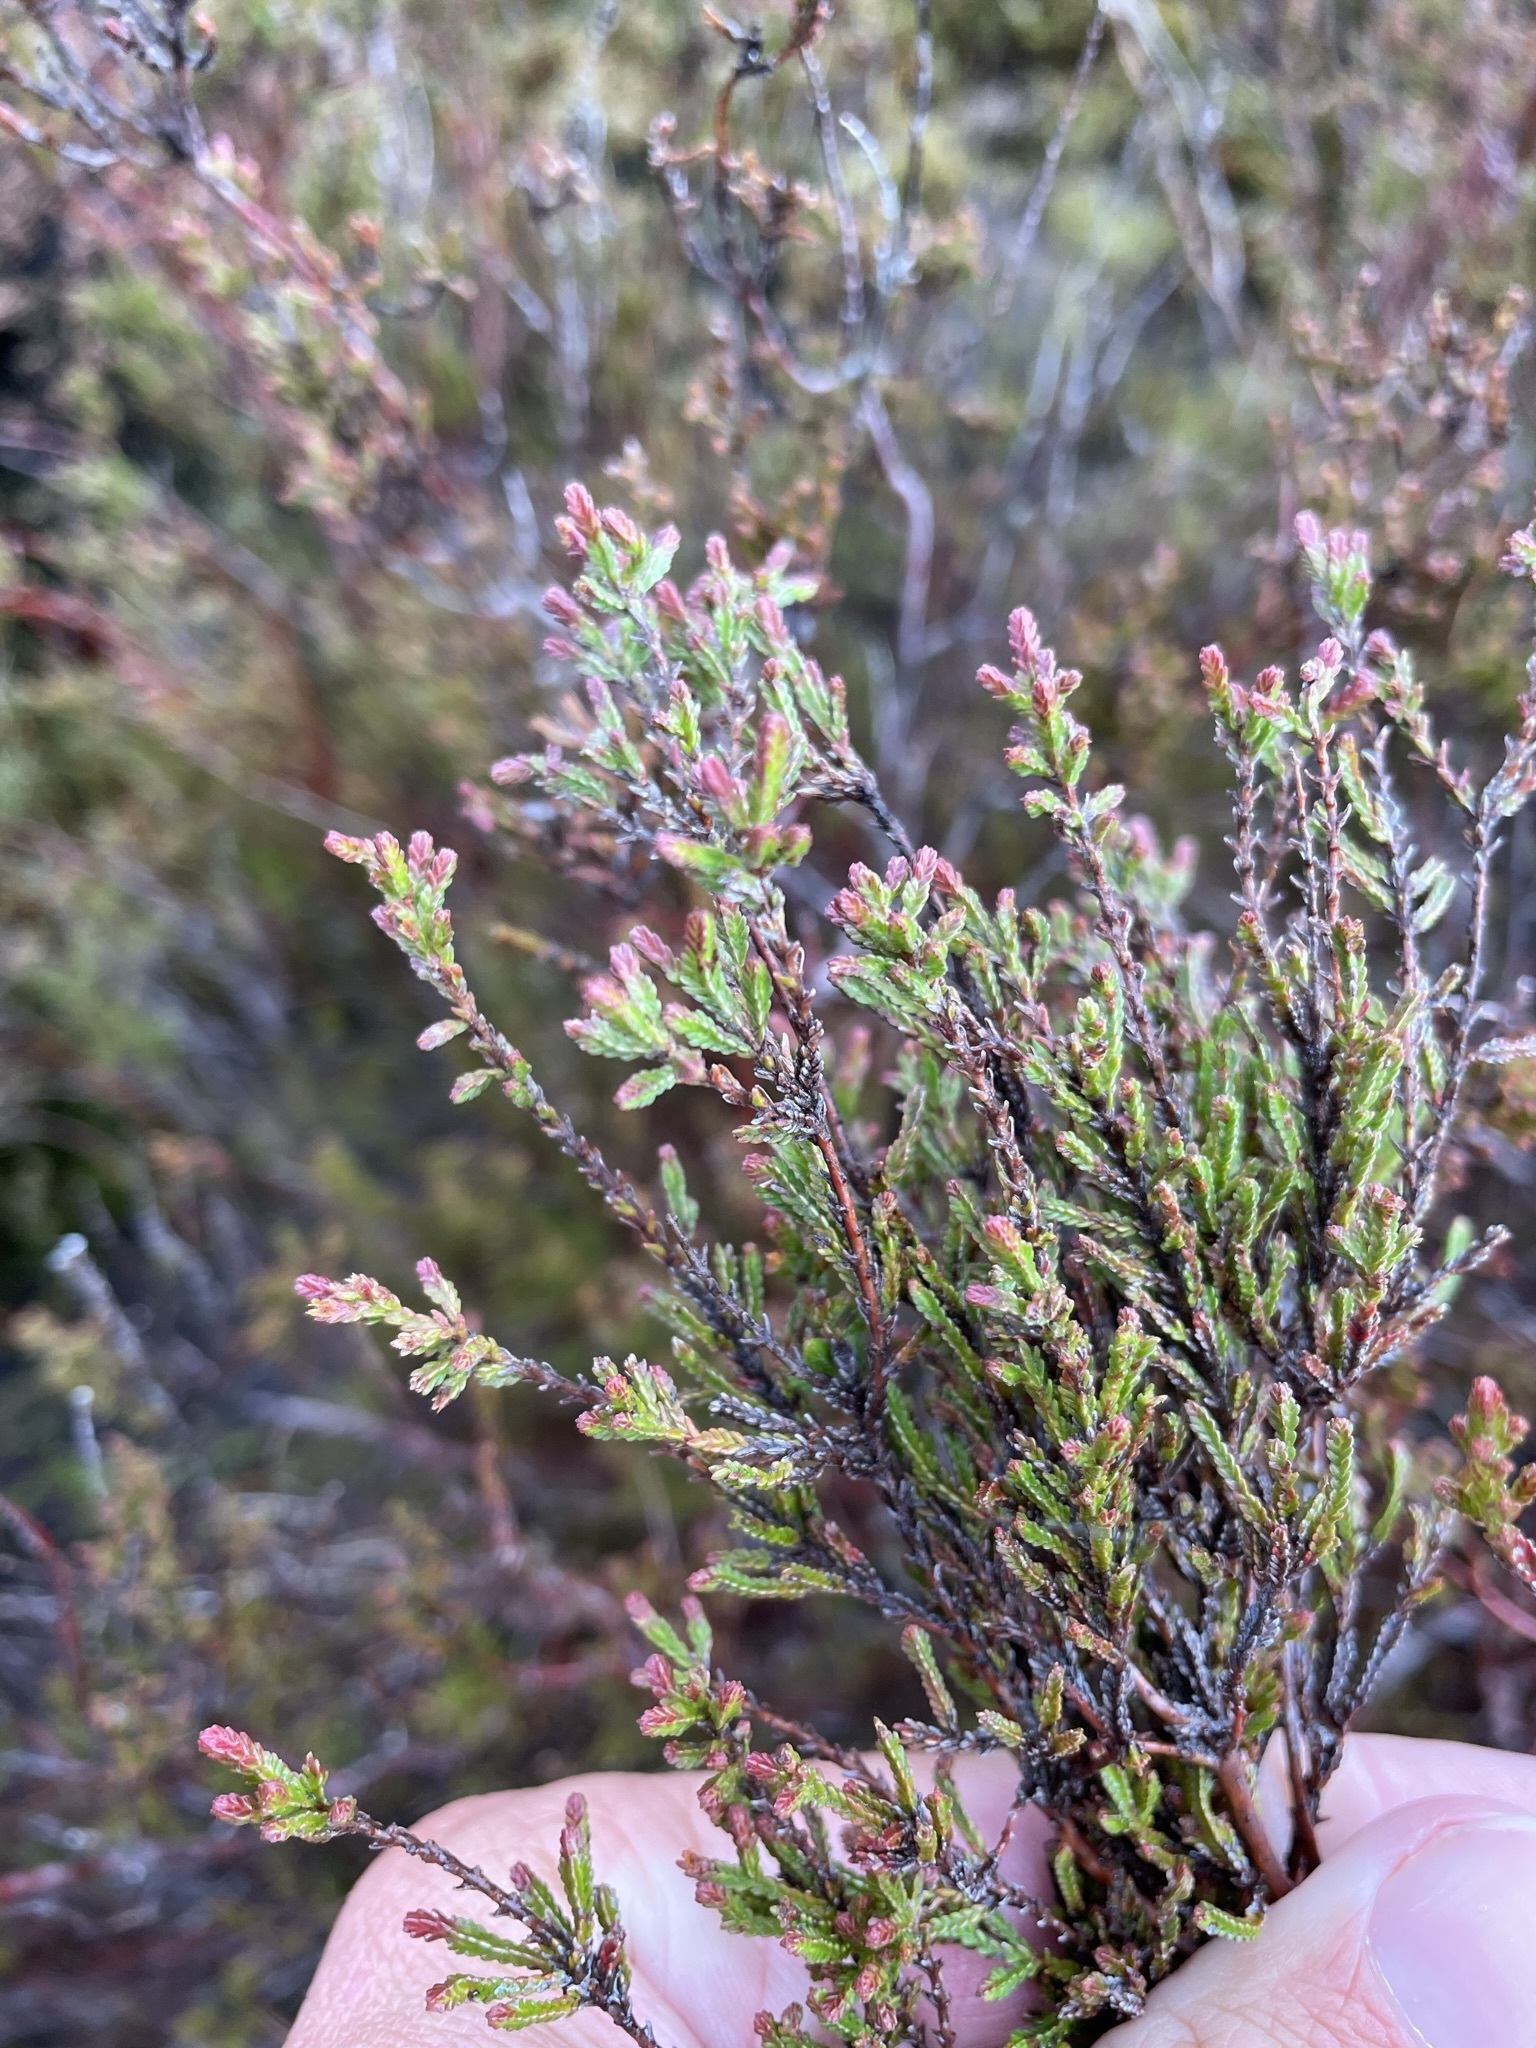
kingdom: Plantae
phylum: Tracheophyta
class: Magnoliopsida
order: Ericales
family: Ericaceae
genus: Calluna
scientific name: Calluna vulgaris
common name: Heather
